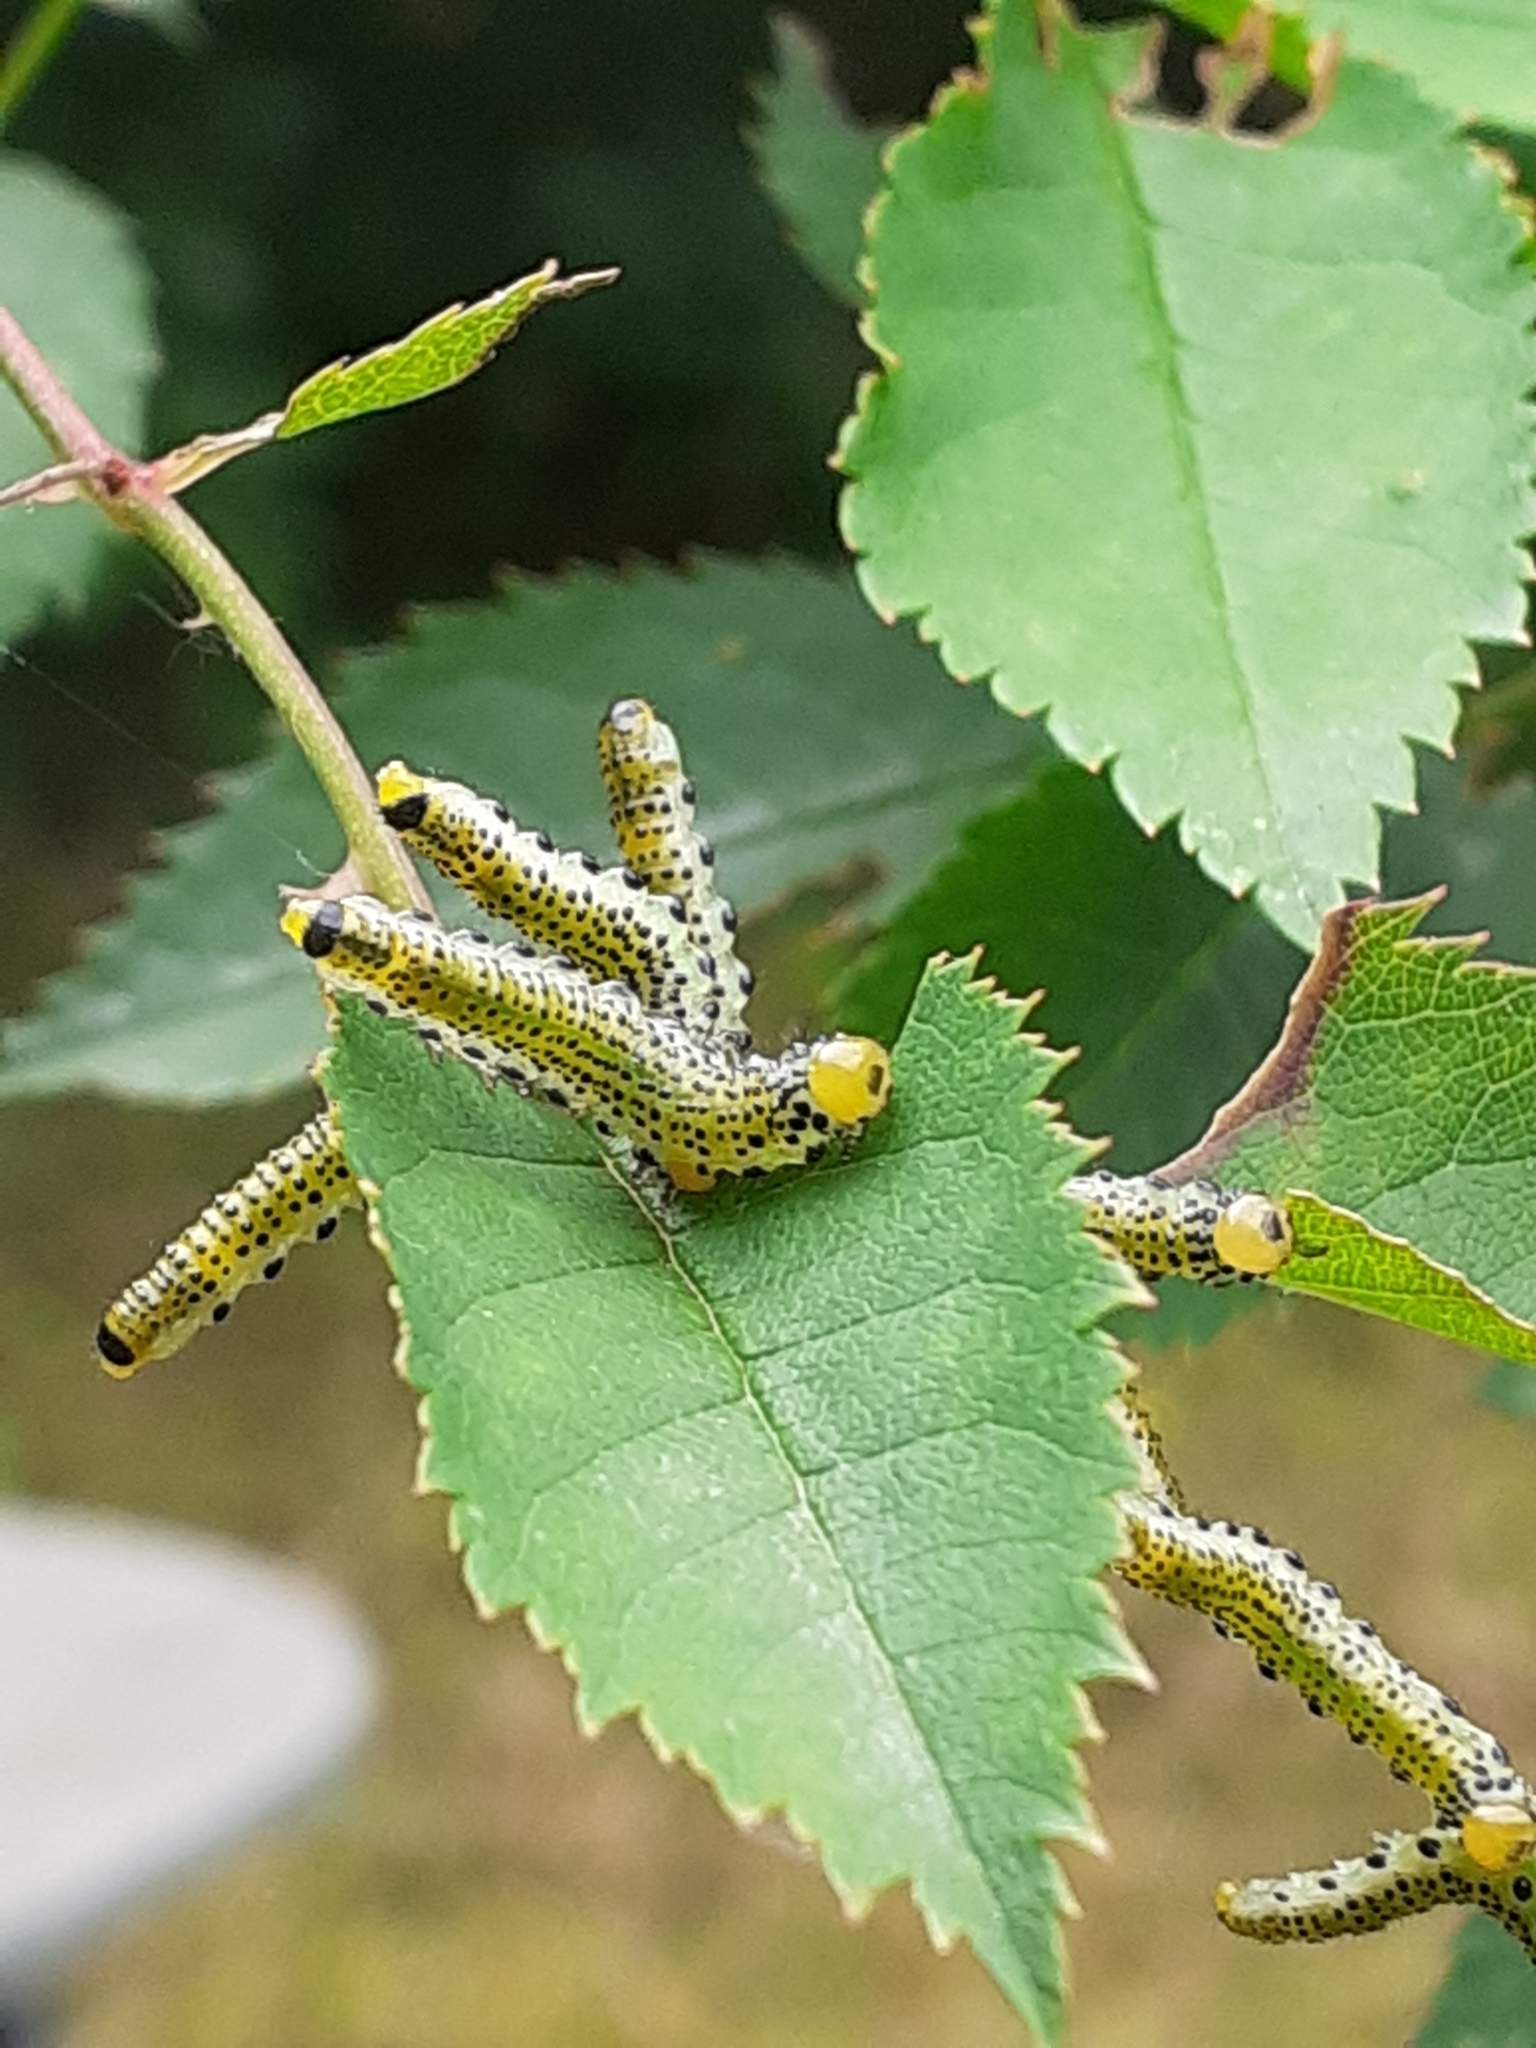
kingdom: Animalia
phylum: Arthropoda
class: Insecta
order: Hymenoptera
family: Argidae
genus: Arge
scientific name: Arge ochropus
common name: Argid sawfly
